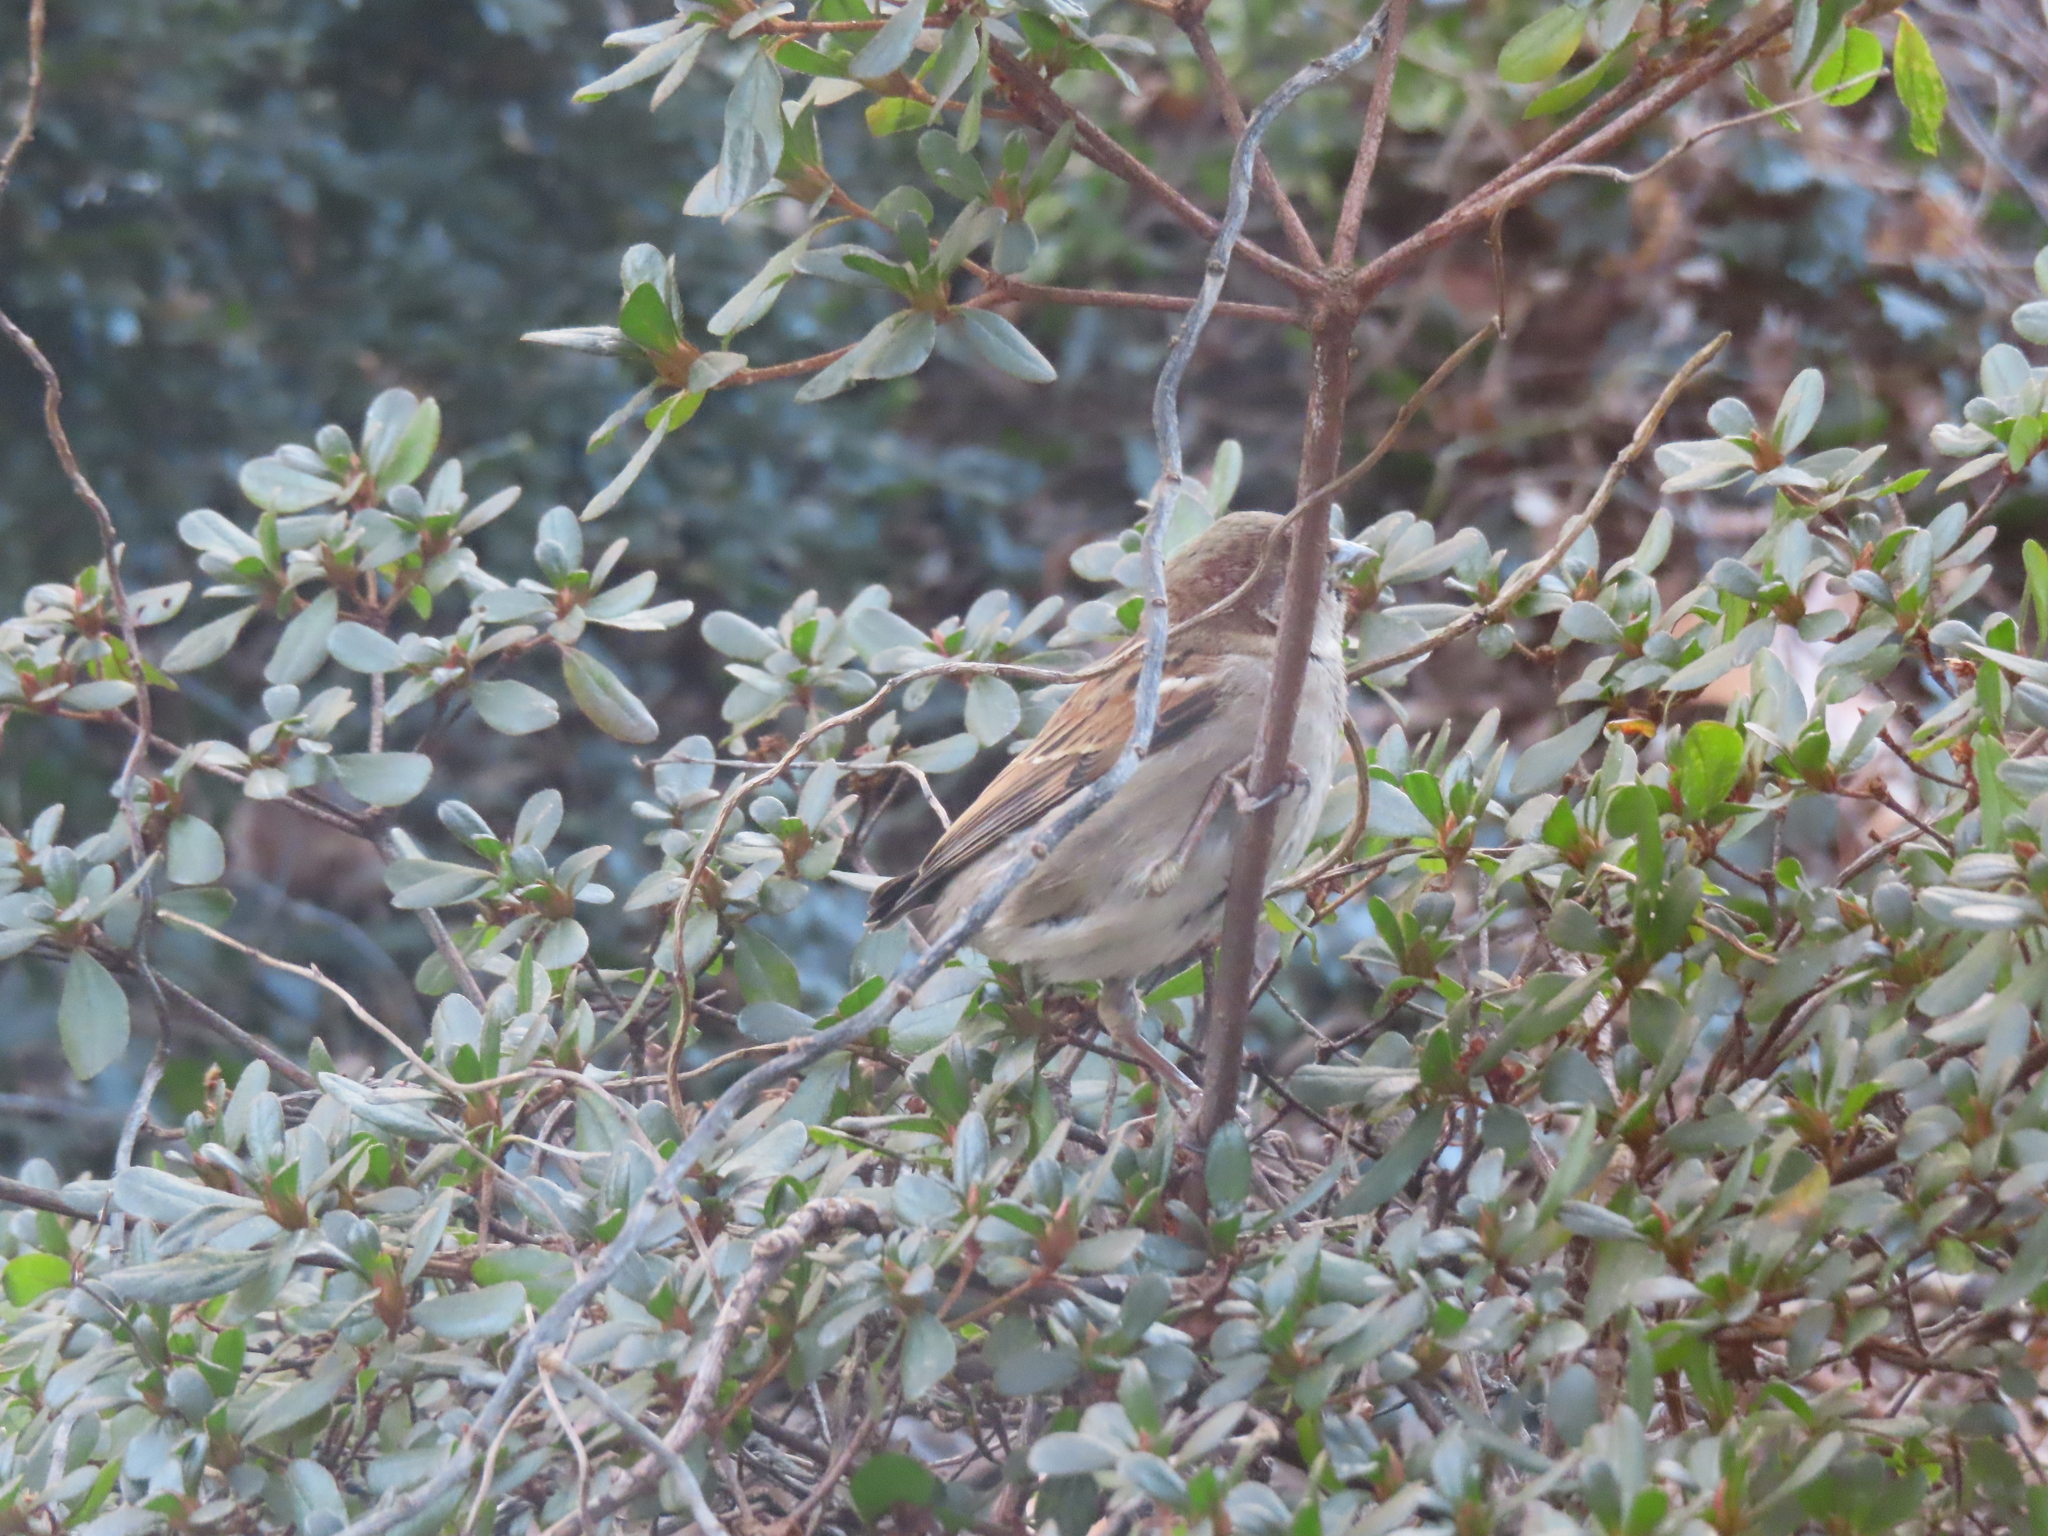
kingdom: Animalia
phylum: Chordata
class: Aves
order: Passeriformes
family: Passeridae
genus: Passer
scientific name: Passer domesticus
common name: House sparrow
